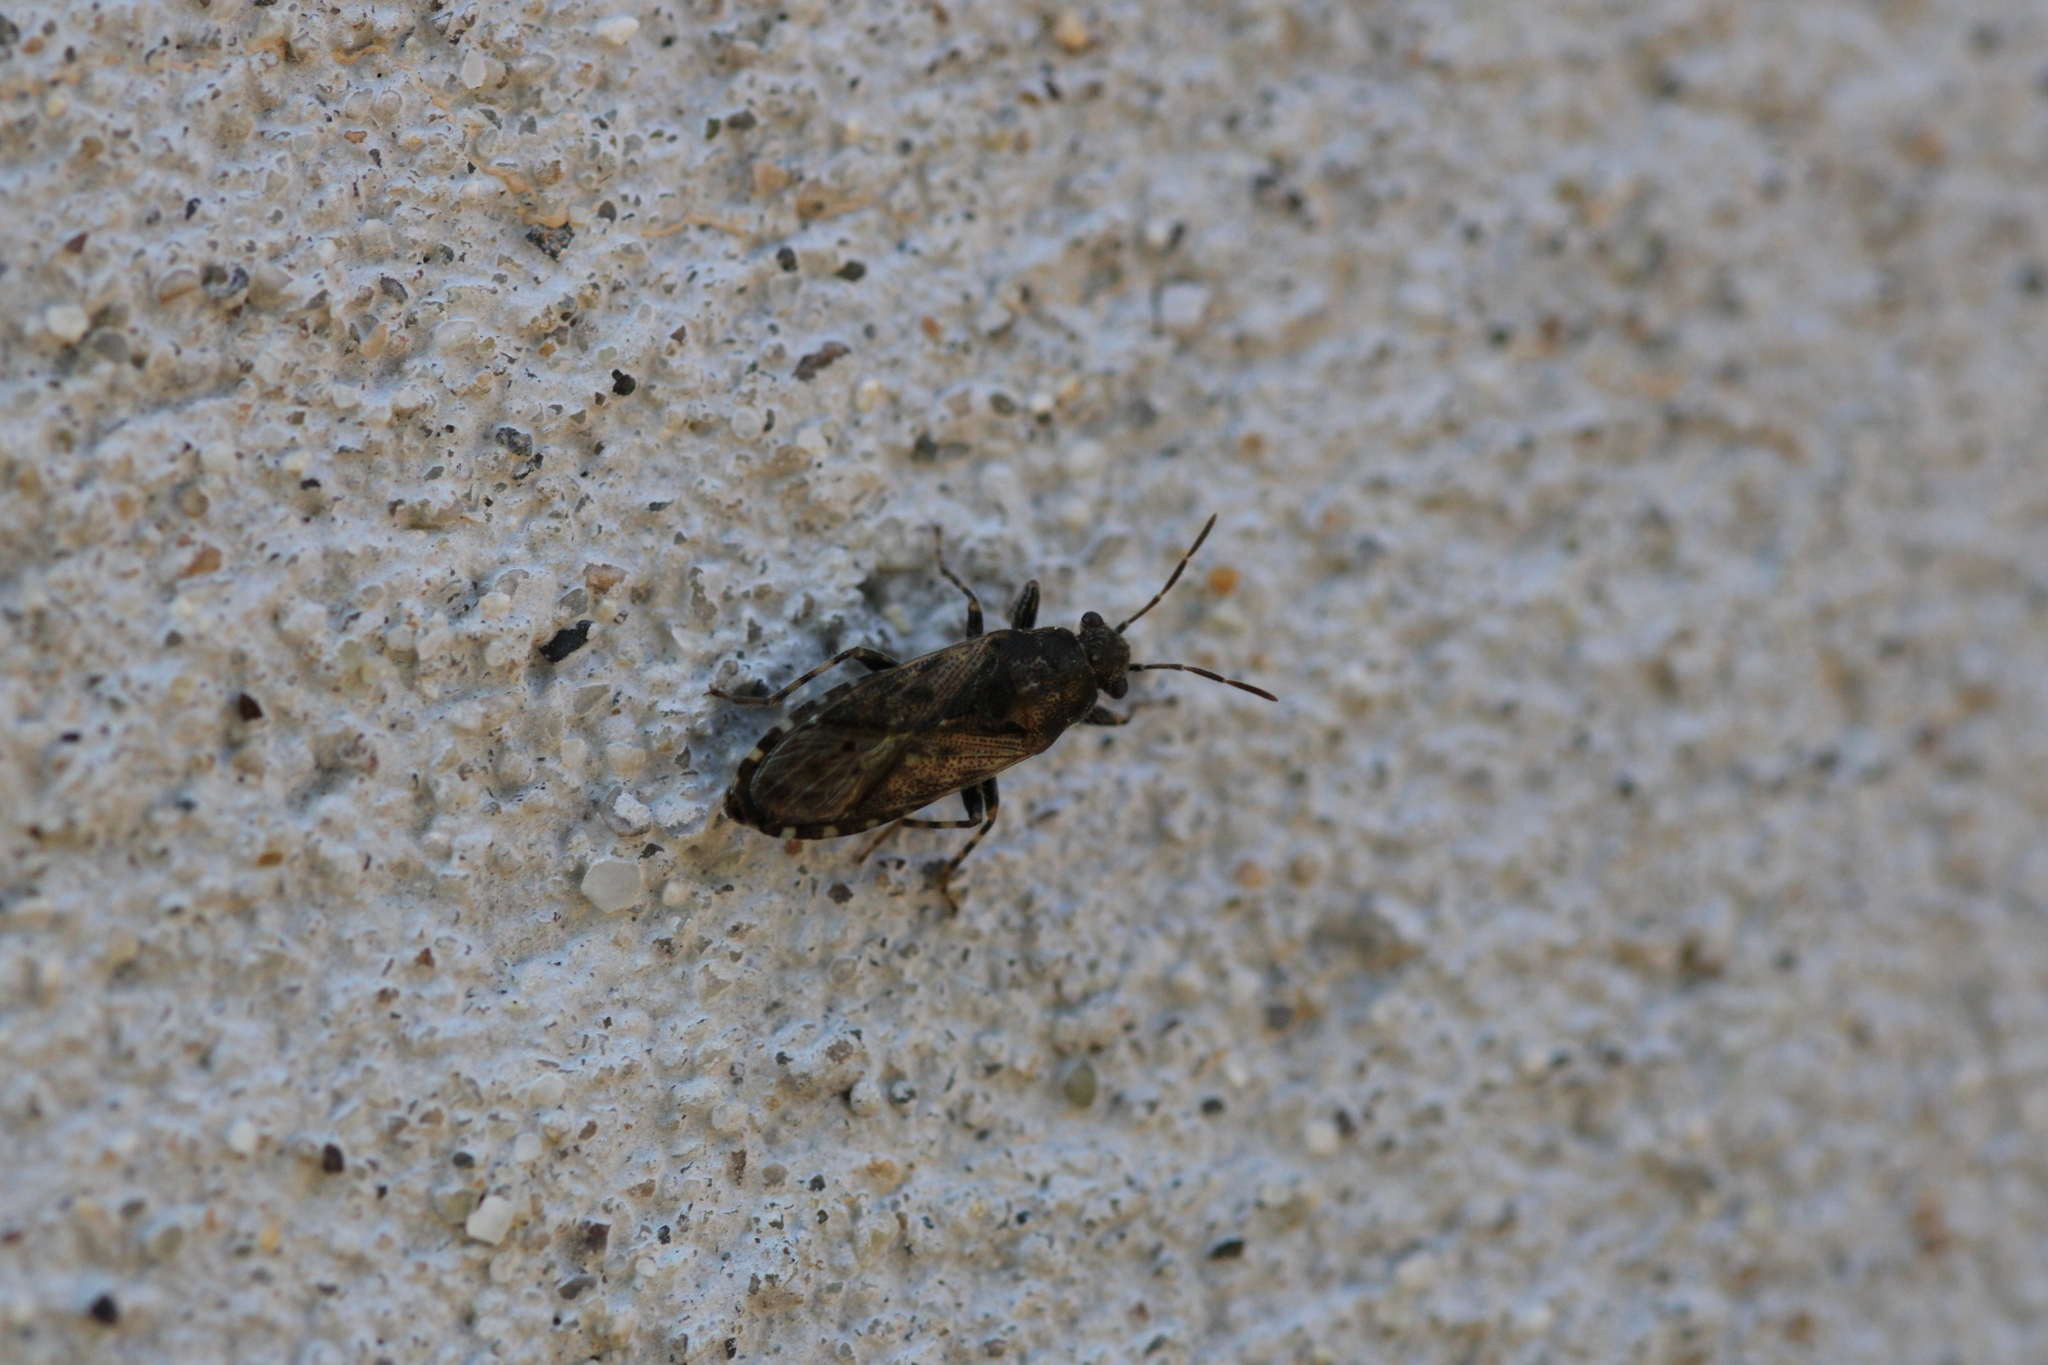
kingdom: Animalia
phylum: Arthropoda
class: Insecta
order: Hemiptera
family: Heterogastridae
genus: Heterogaster
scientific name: Heterogaster urticae
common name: Seed bug
